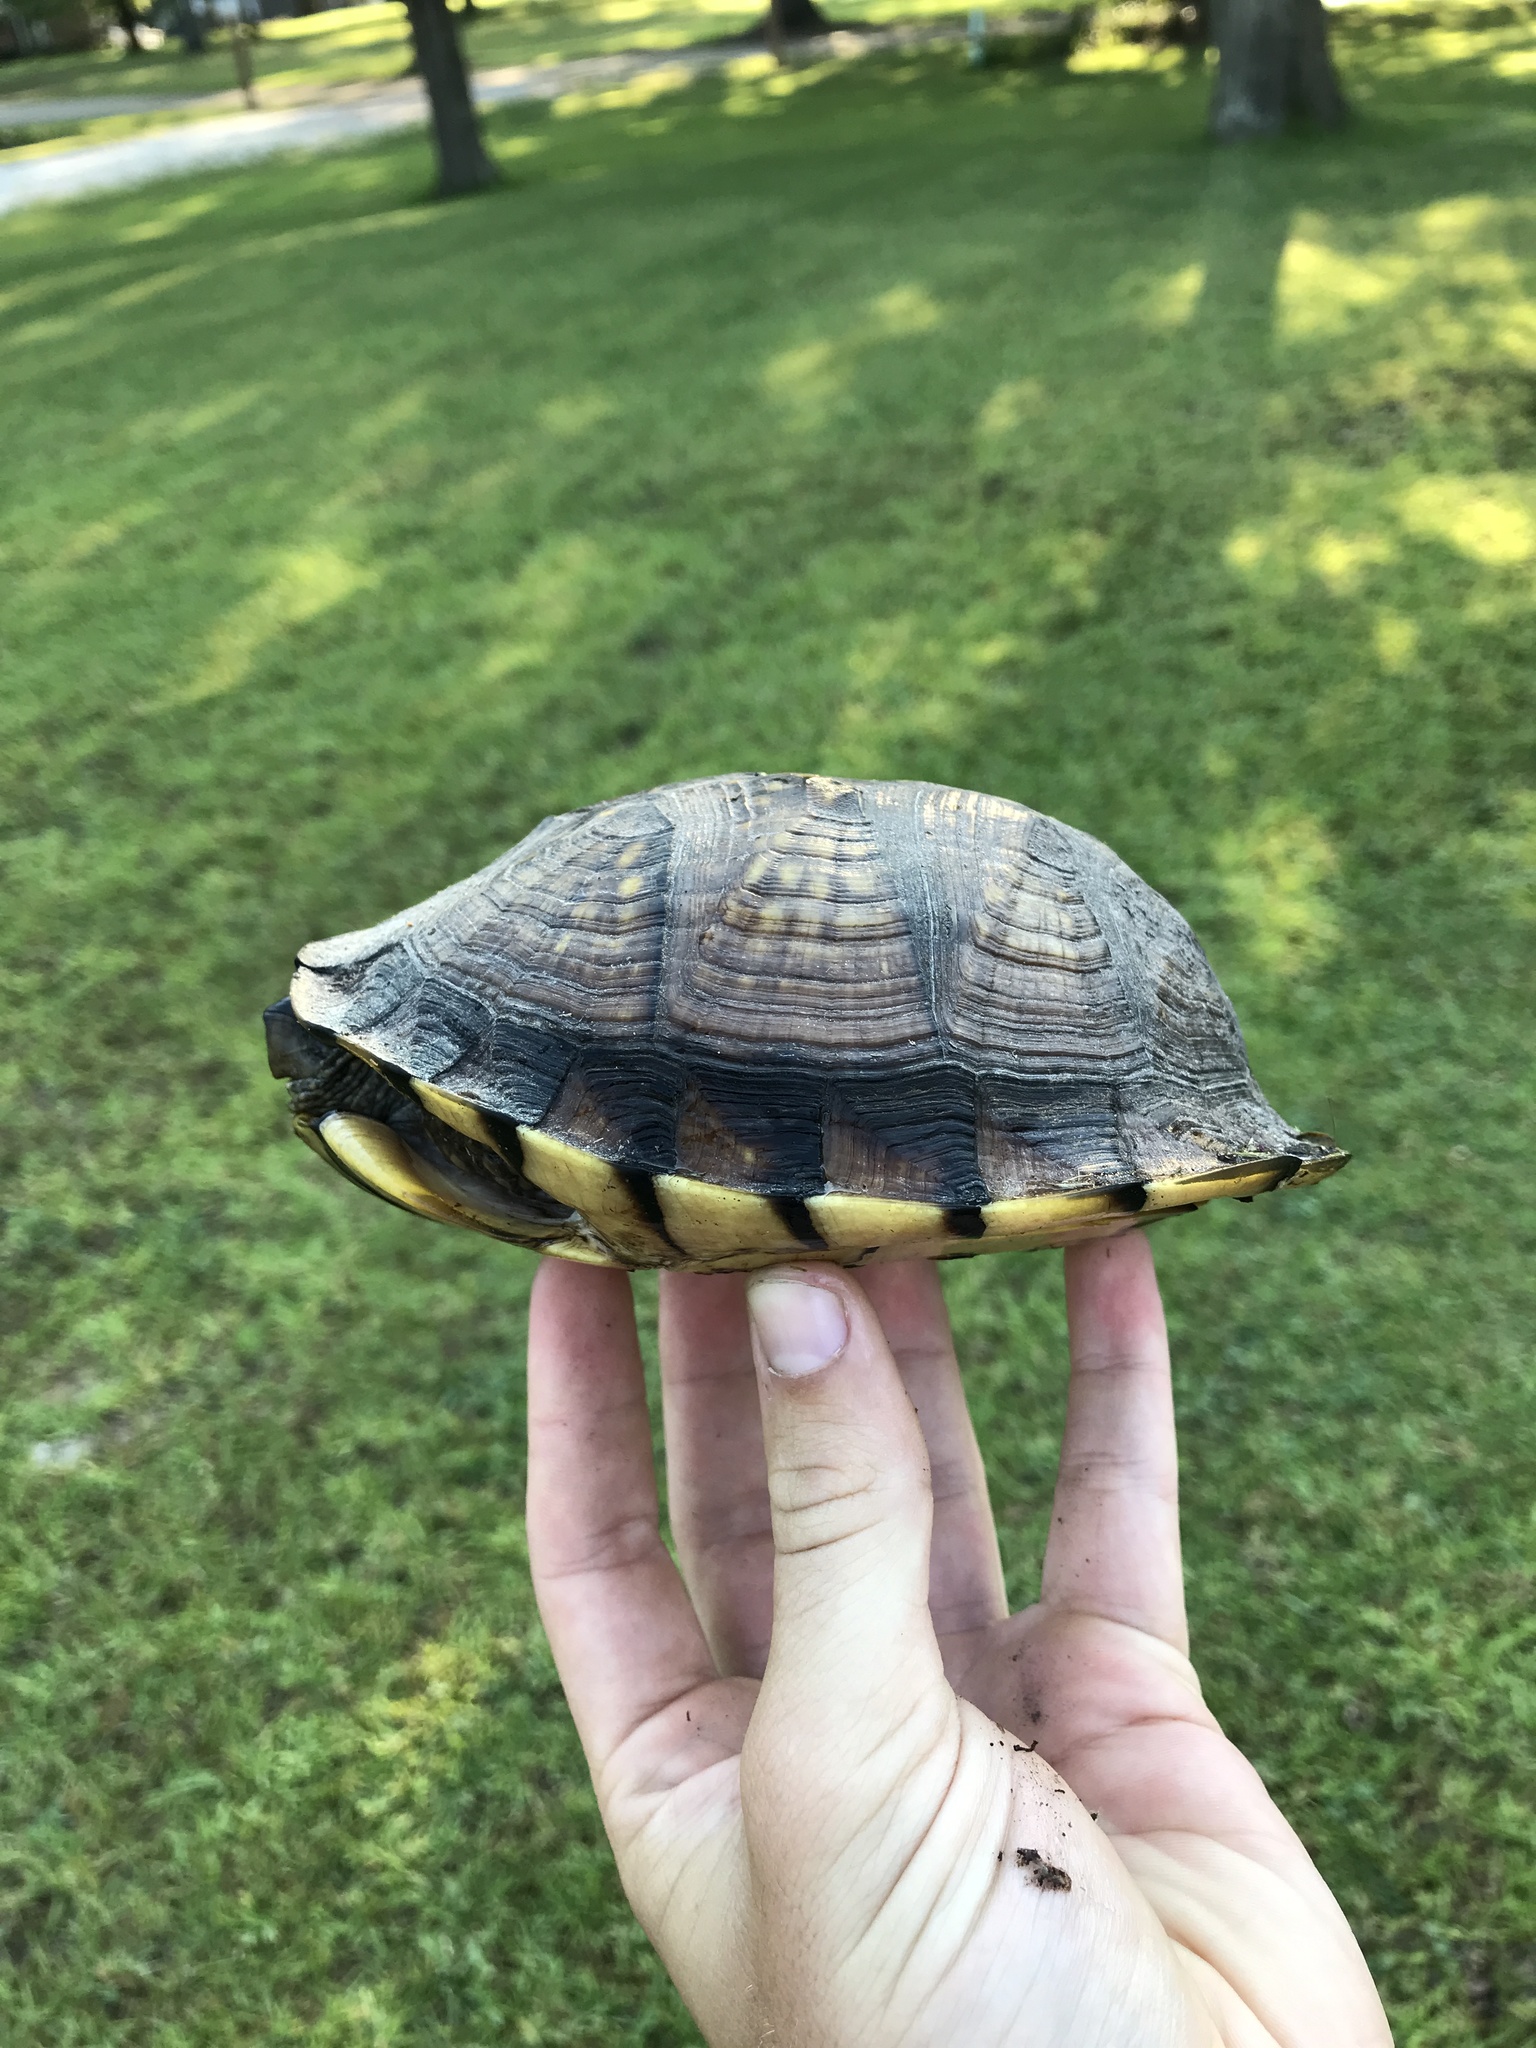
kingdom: Animalia
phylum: Chordata
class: Testudines
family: Emydidae
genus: Terrapene
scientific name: Terrapene carolina
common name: Common box turtle
